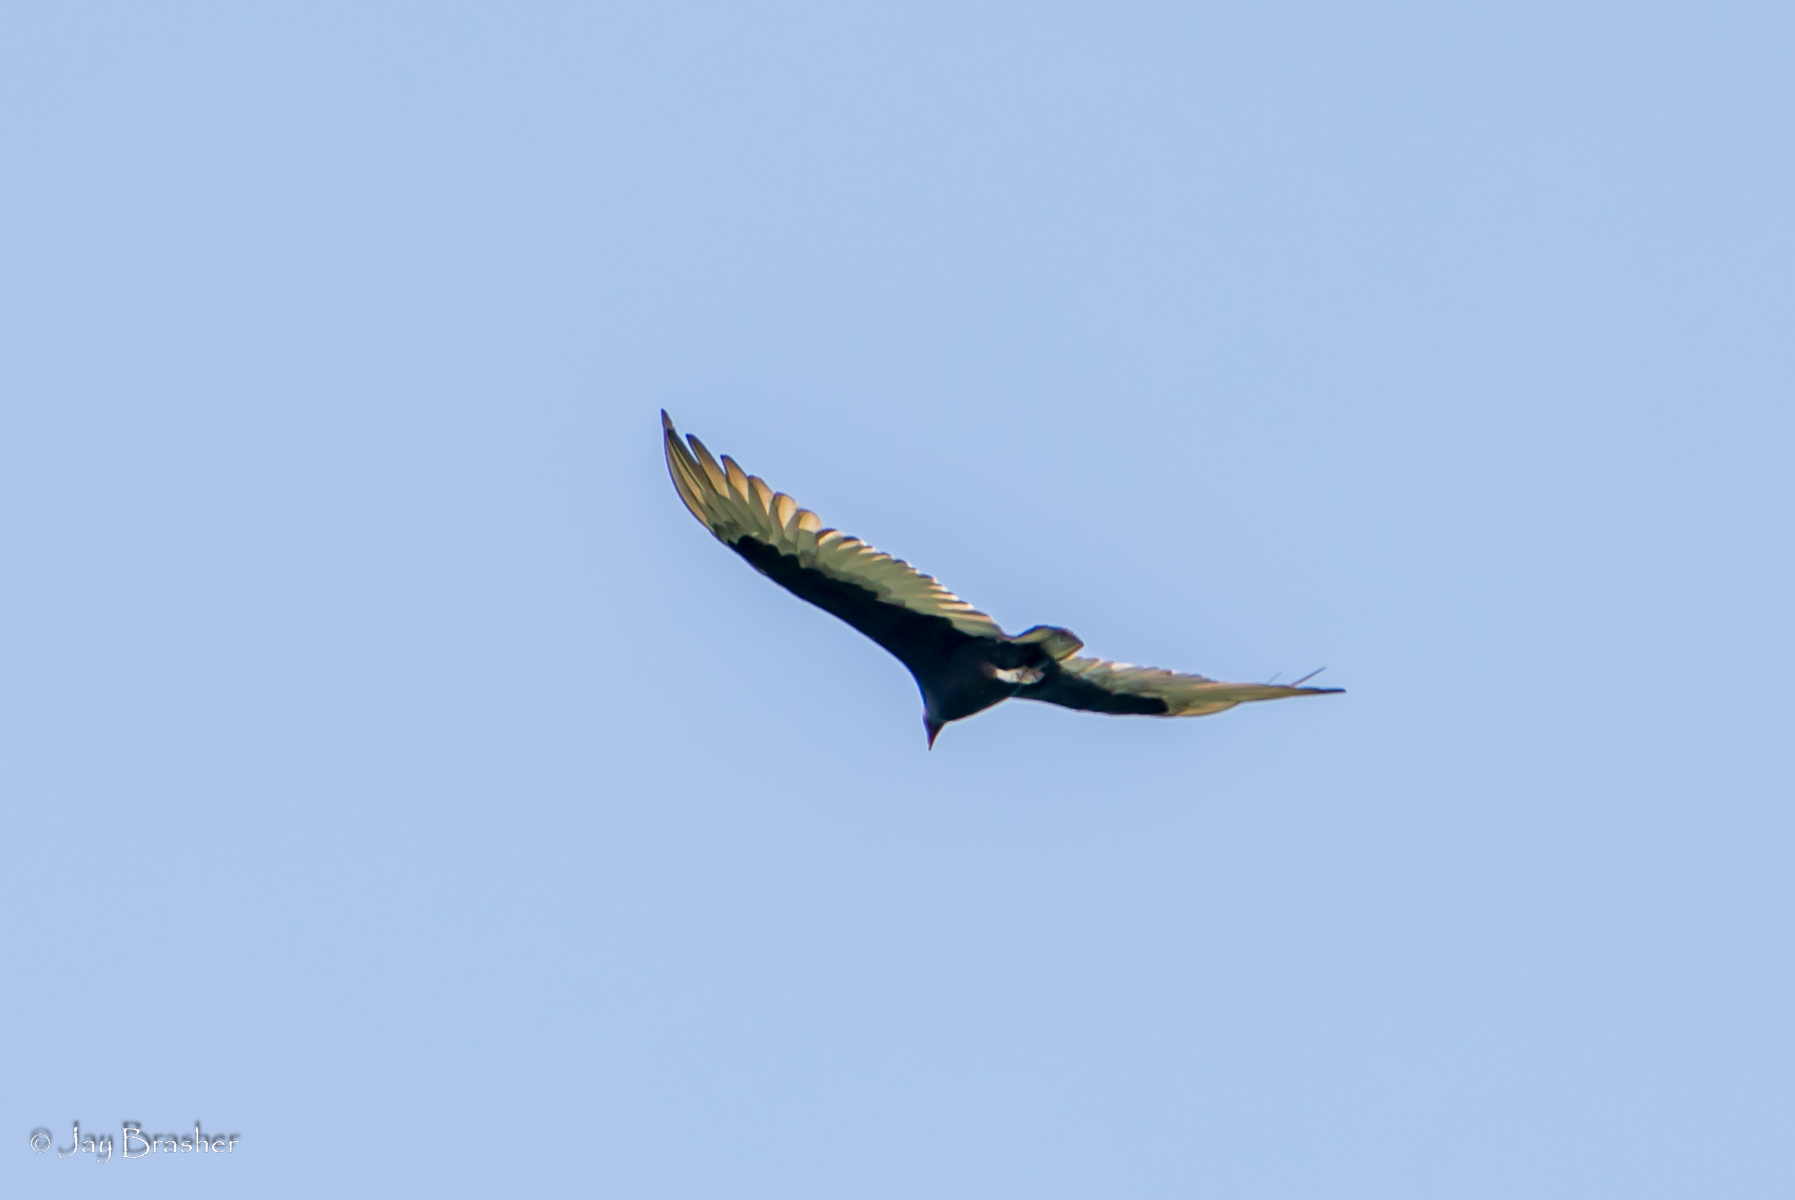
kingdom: Animalia
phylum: Chordata
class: Aves
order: Accipitriformes
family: Cathartidae
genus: Cathartes
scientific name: Cathartes aura
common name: Turkey vulture
